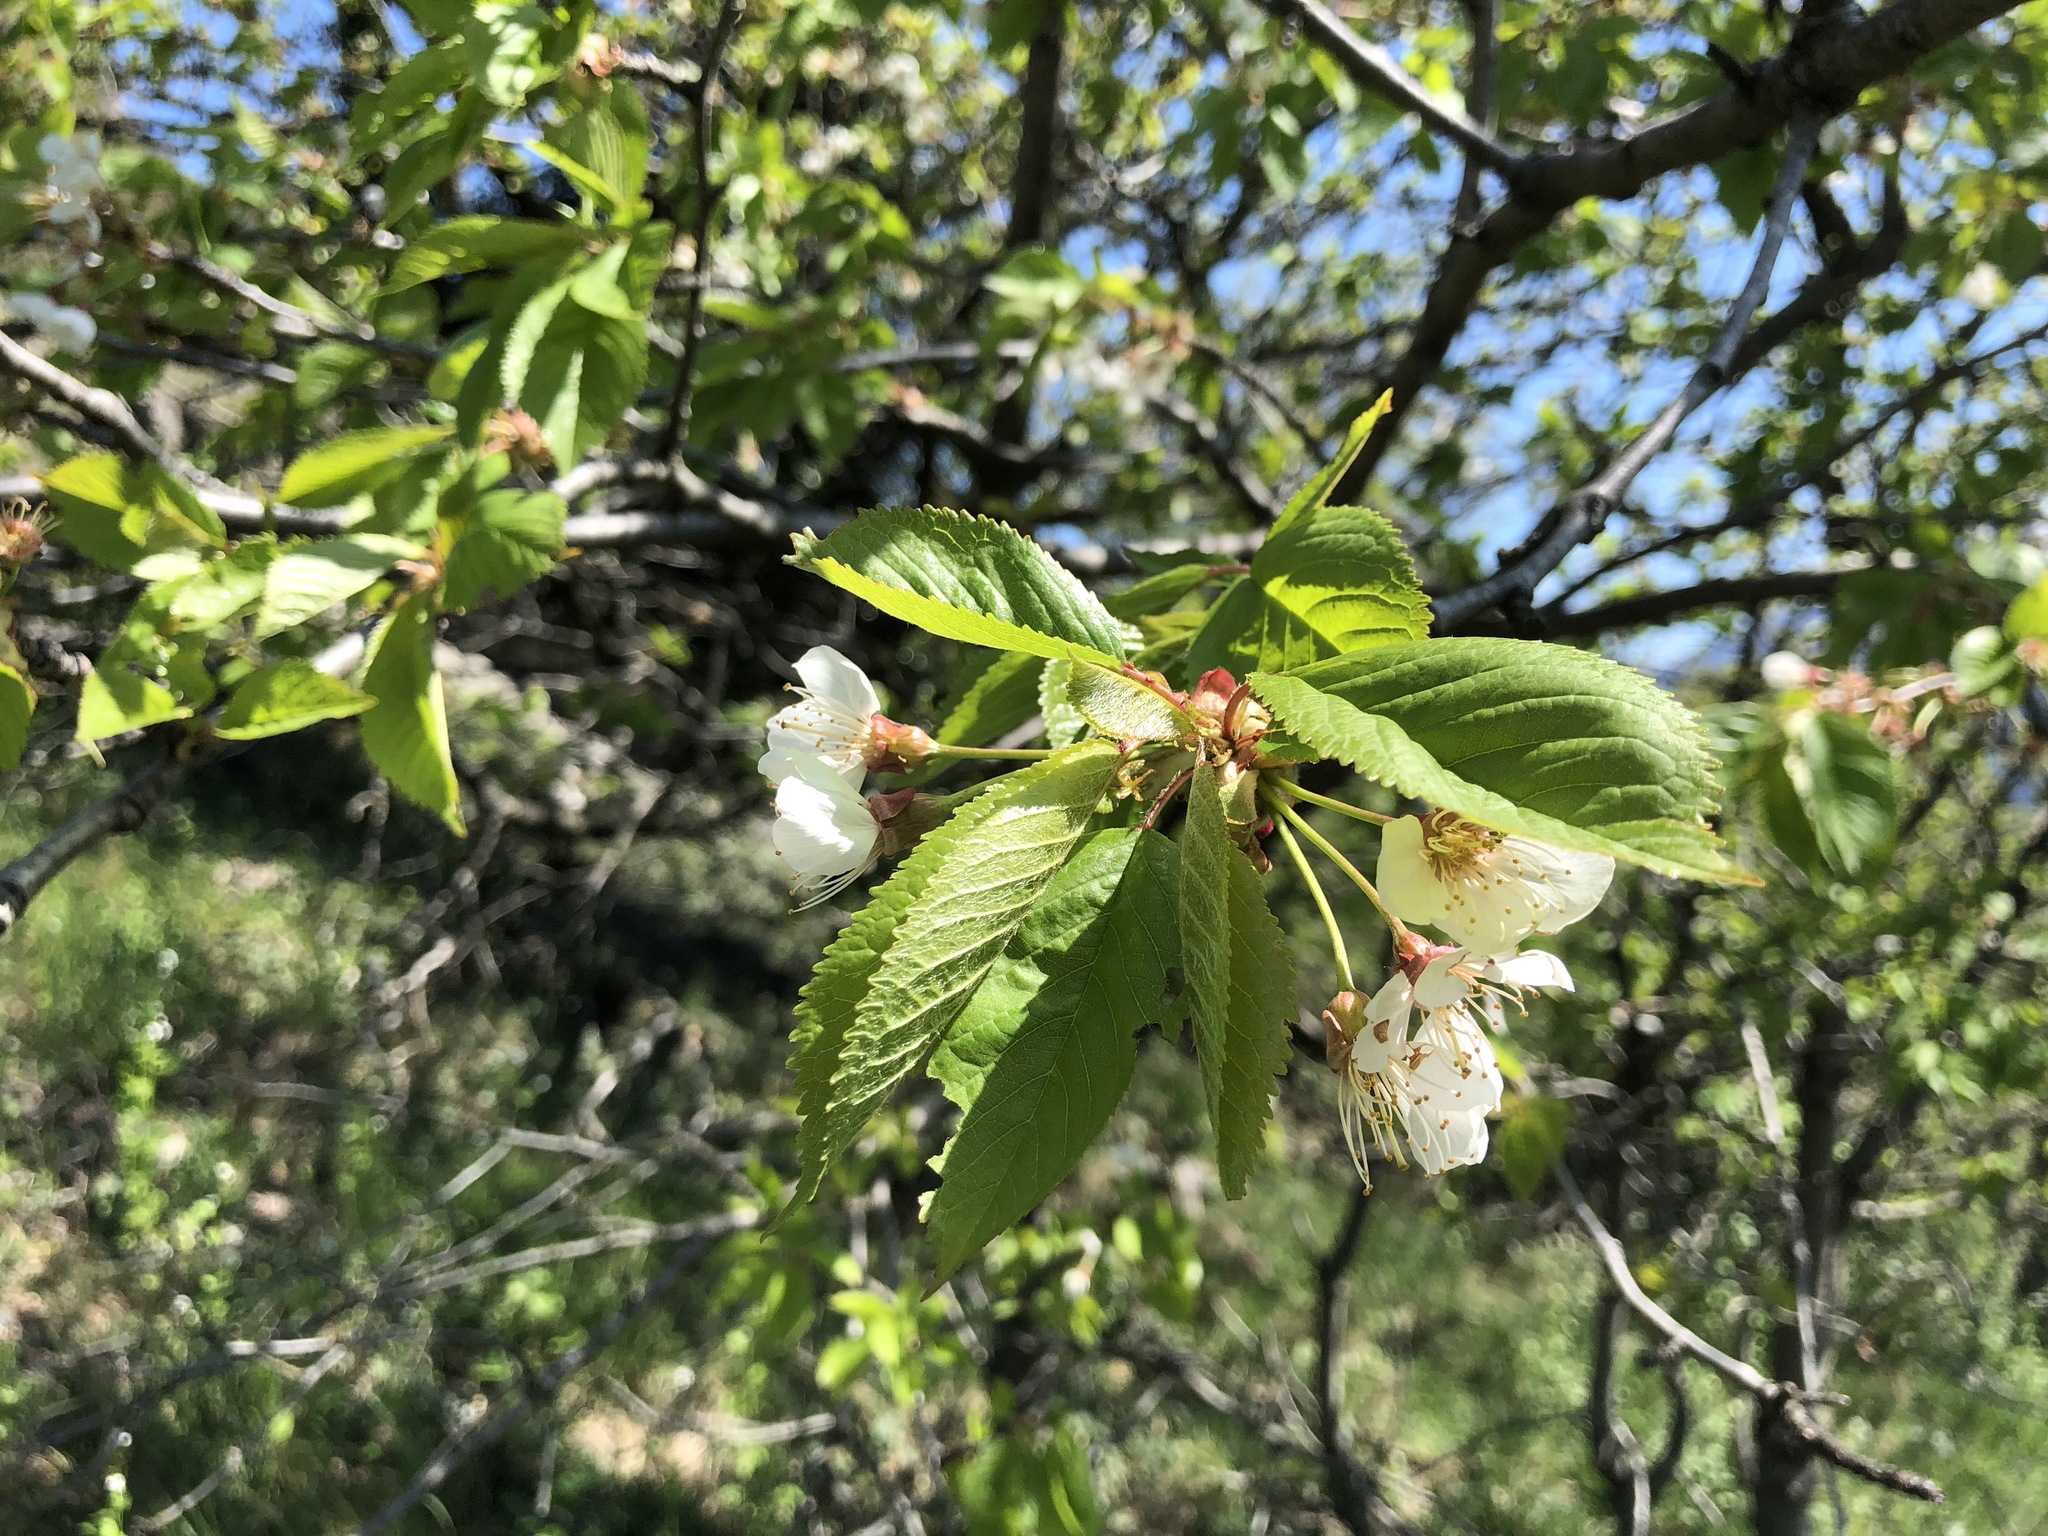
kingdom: Plantae
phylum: Tracheophyta
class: Magnoliopsida
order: Rosales
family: Rosaceae
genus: Prunus
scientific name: Prunus avium
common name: Sweet cherry
